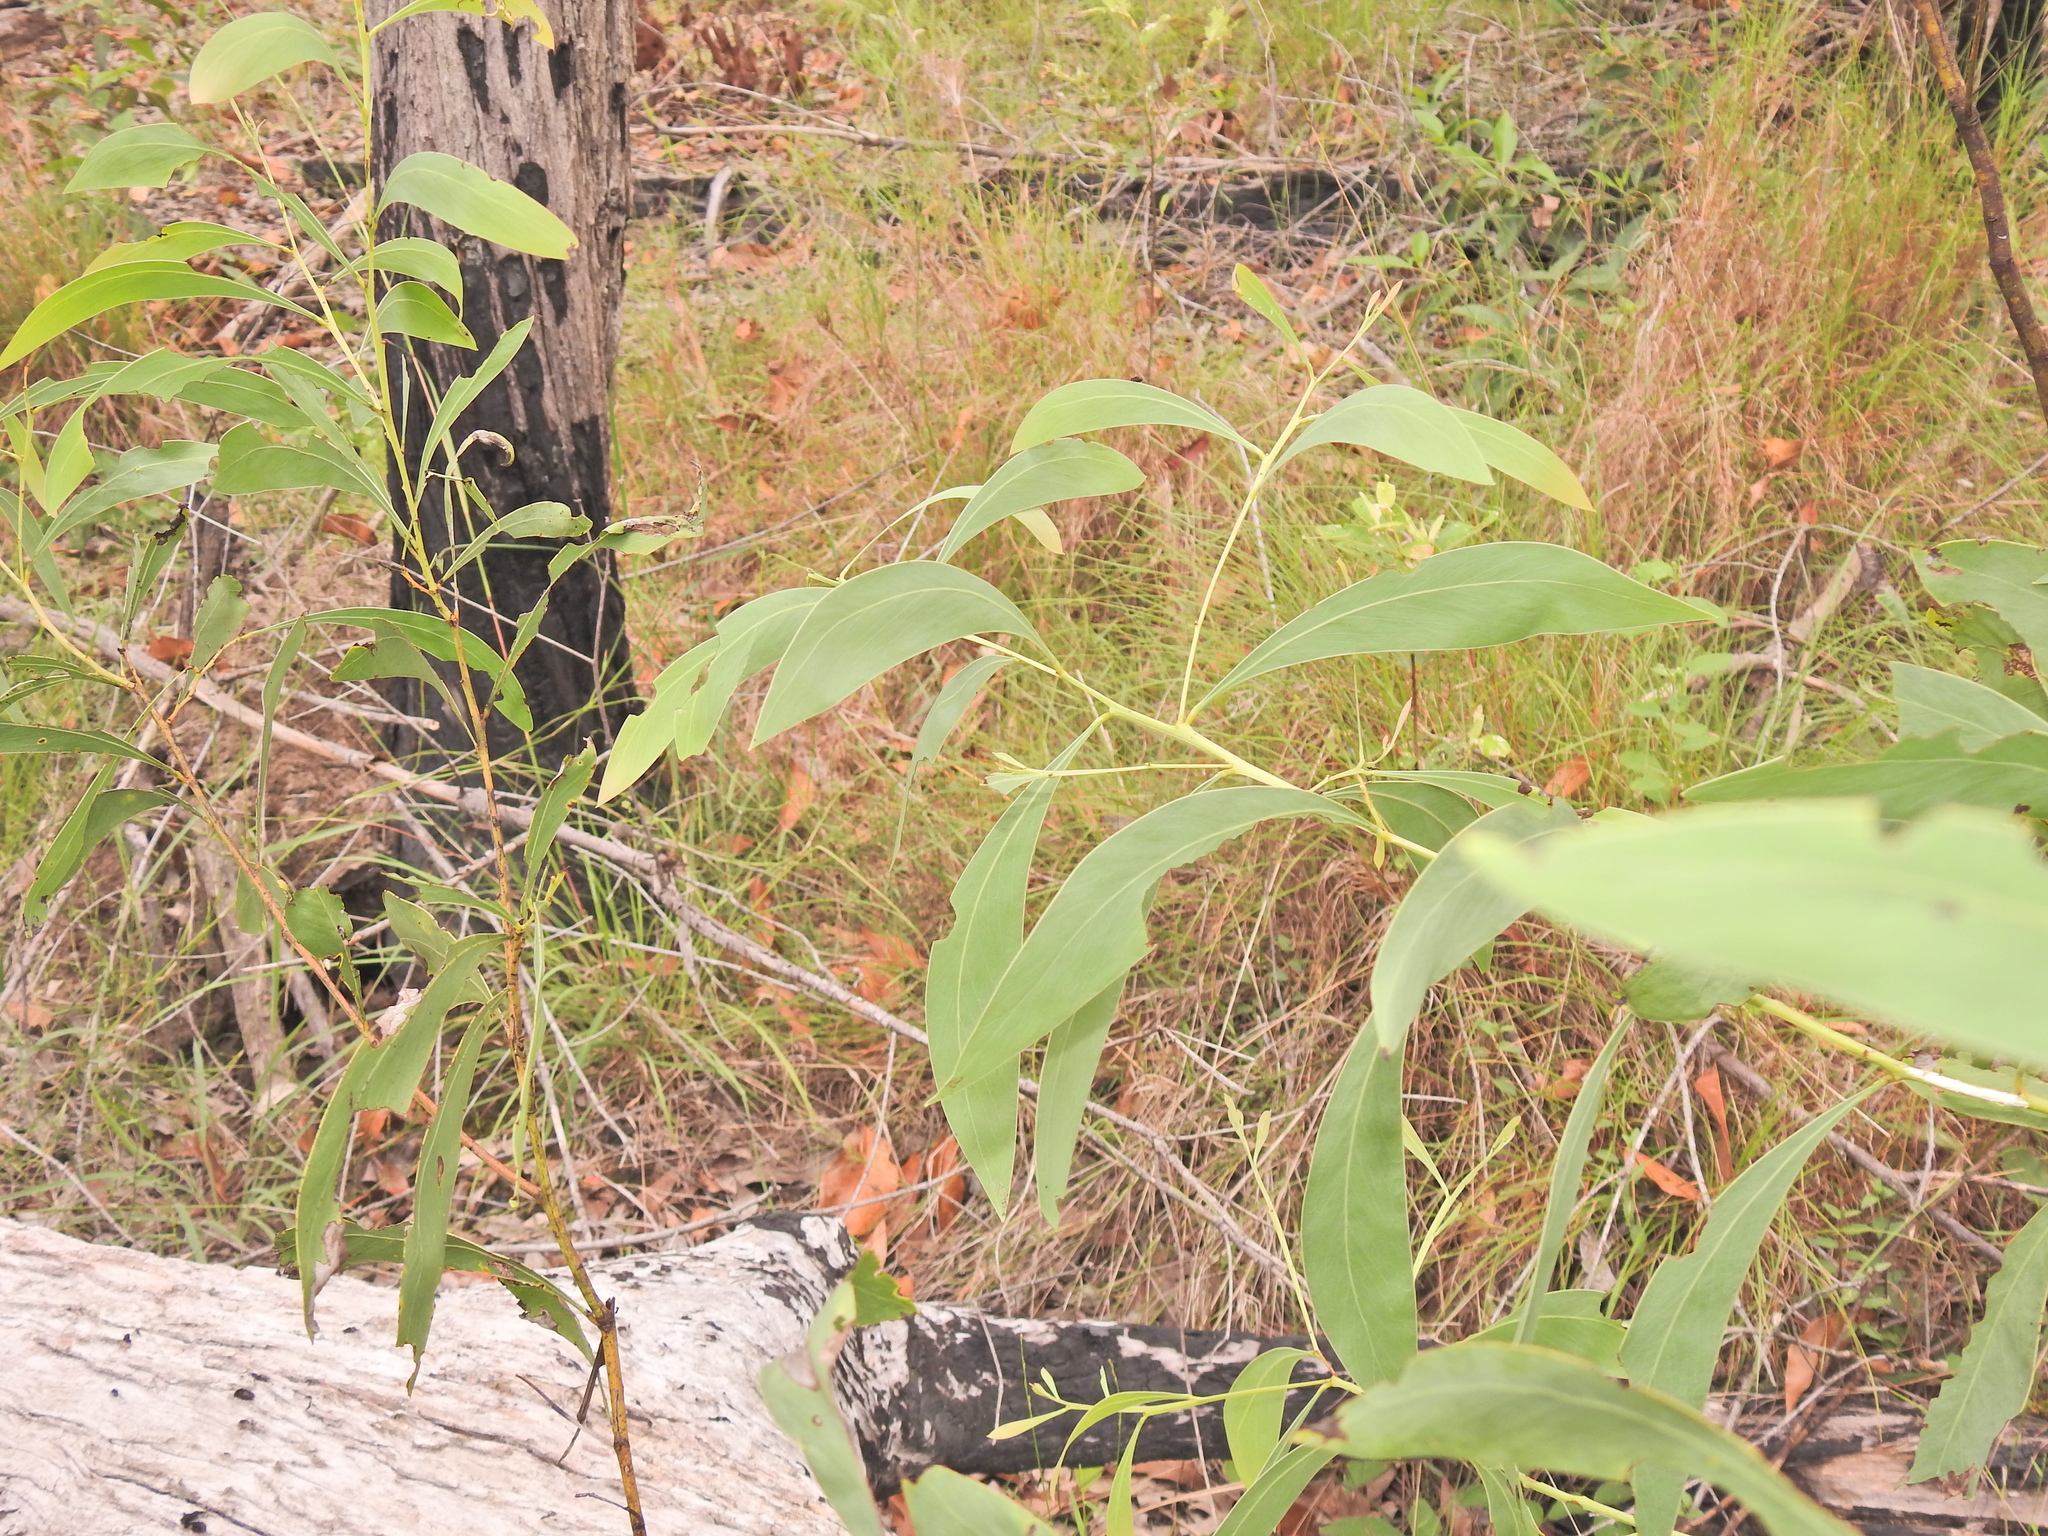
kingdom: Plantae
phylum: Tracheophyta
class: Magnoliopsida
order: Fabales
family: Fabaceae
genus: Acacia
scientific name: Acacia falcata
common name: Burra acacia
